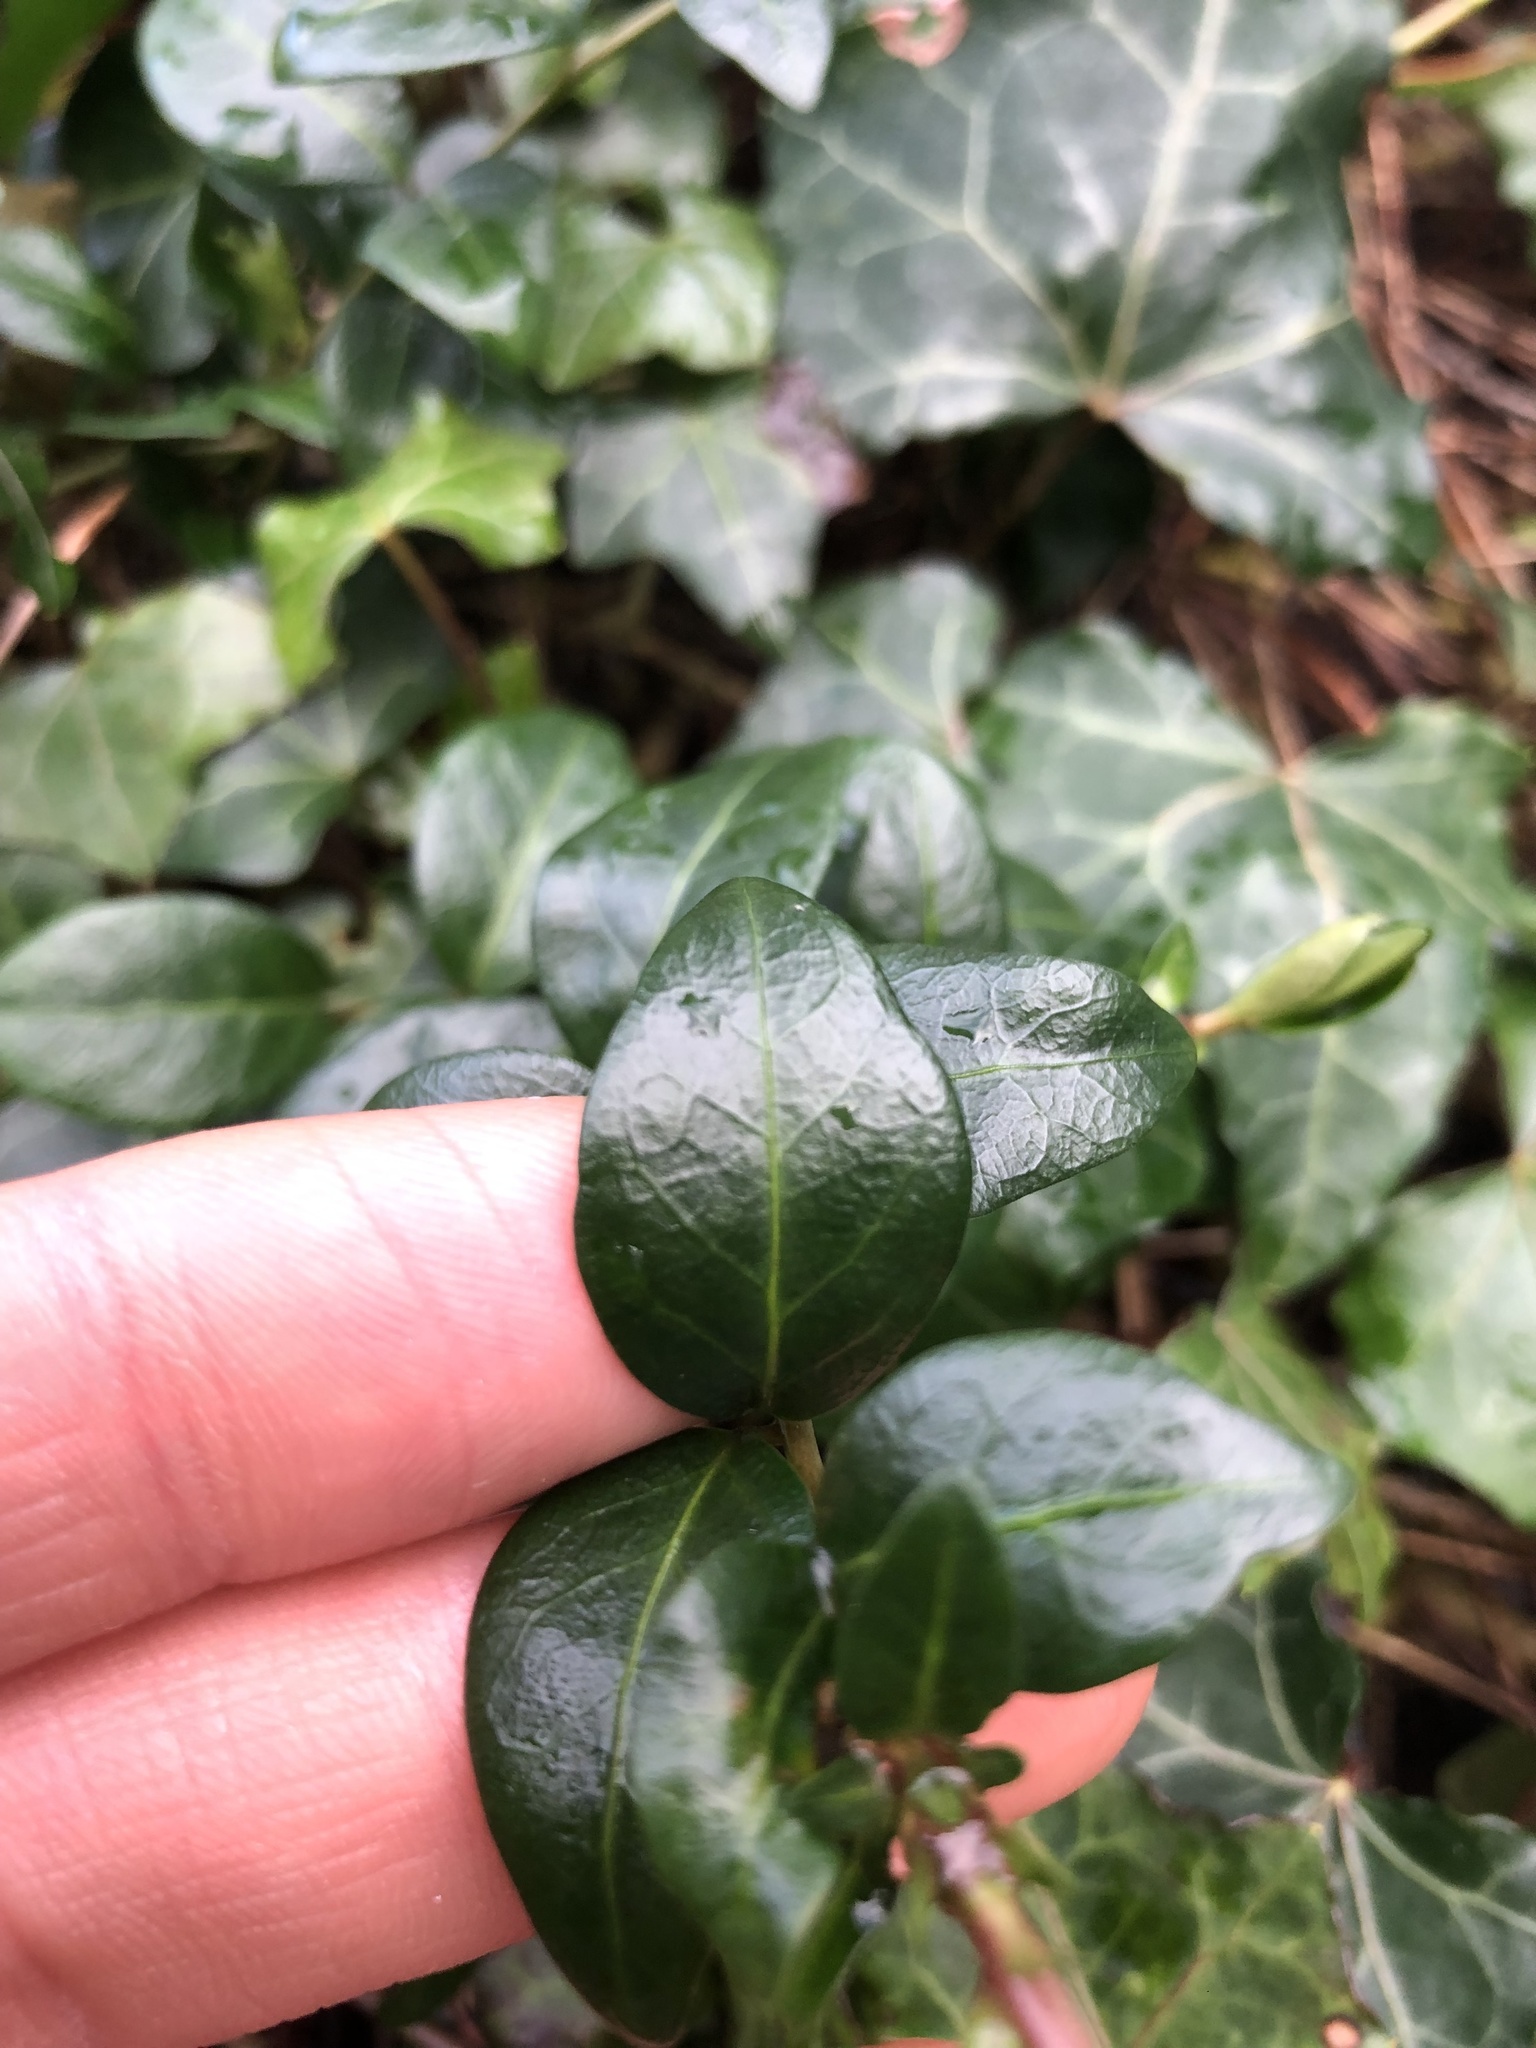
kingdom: Plantae
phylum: Tracheophyta
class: Magnoliopsida
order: Gentianales
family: Apocynaceae
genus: Vinca
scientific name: Vinca minor
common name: Lesser periwinkle
